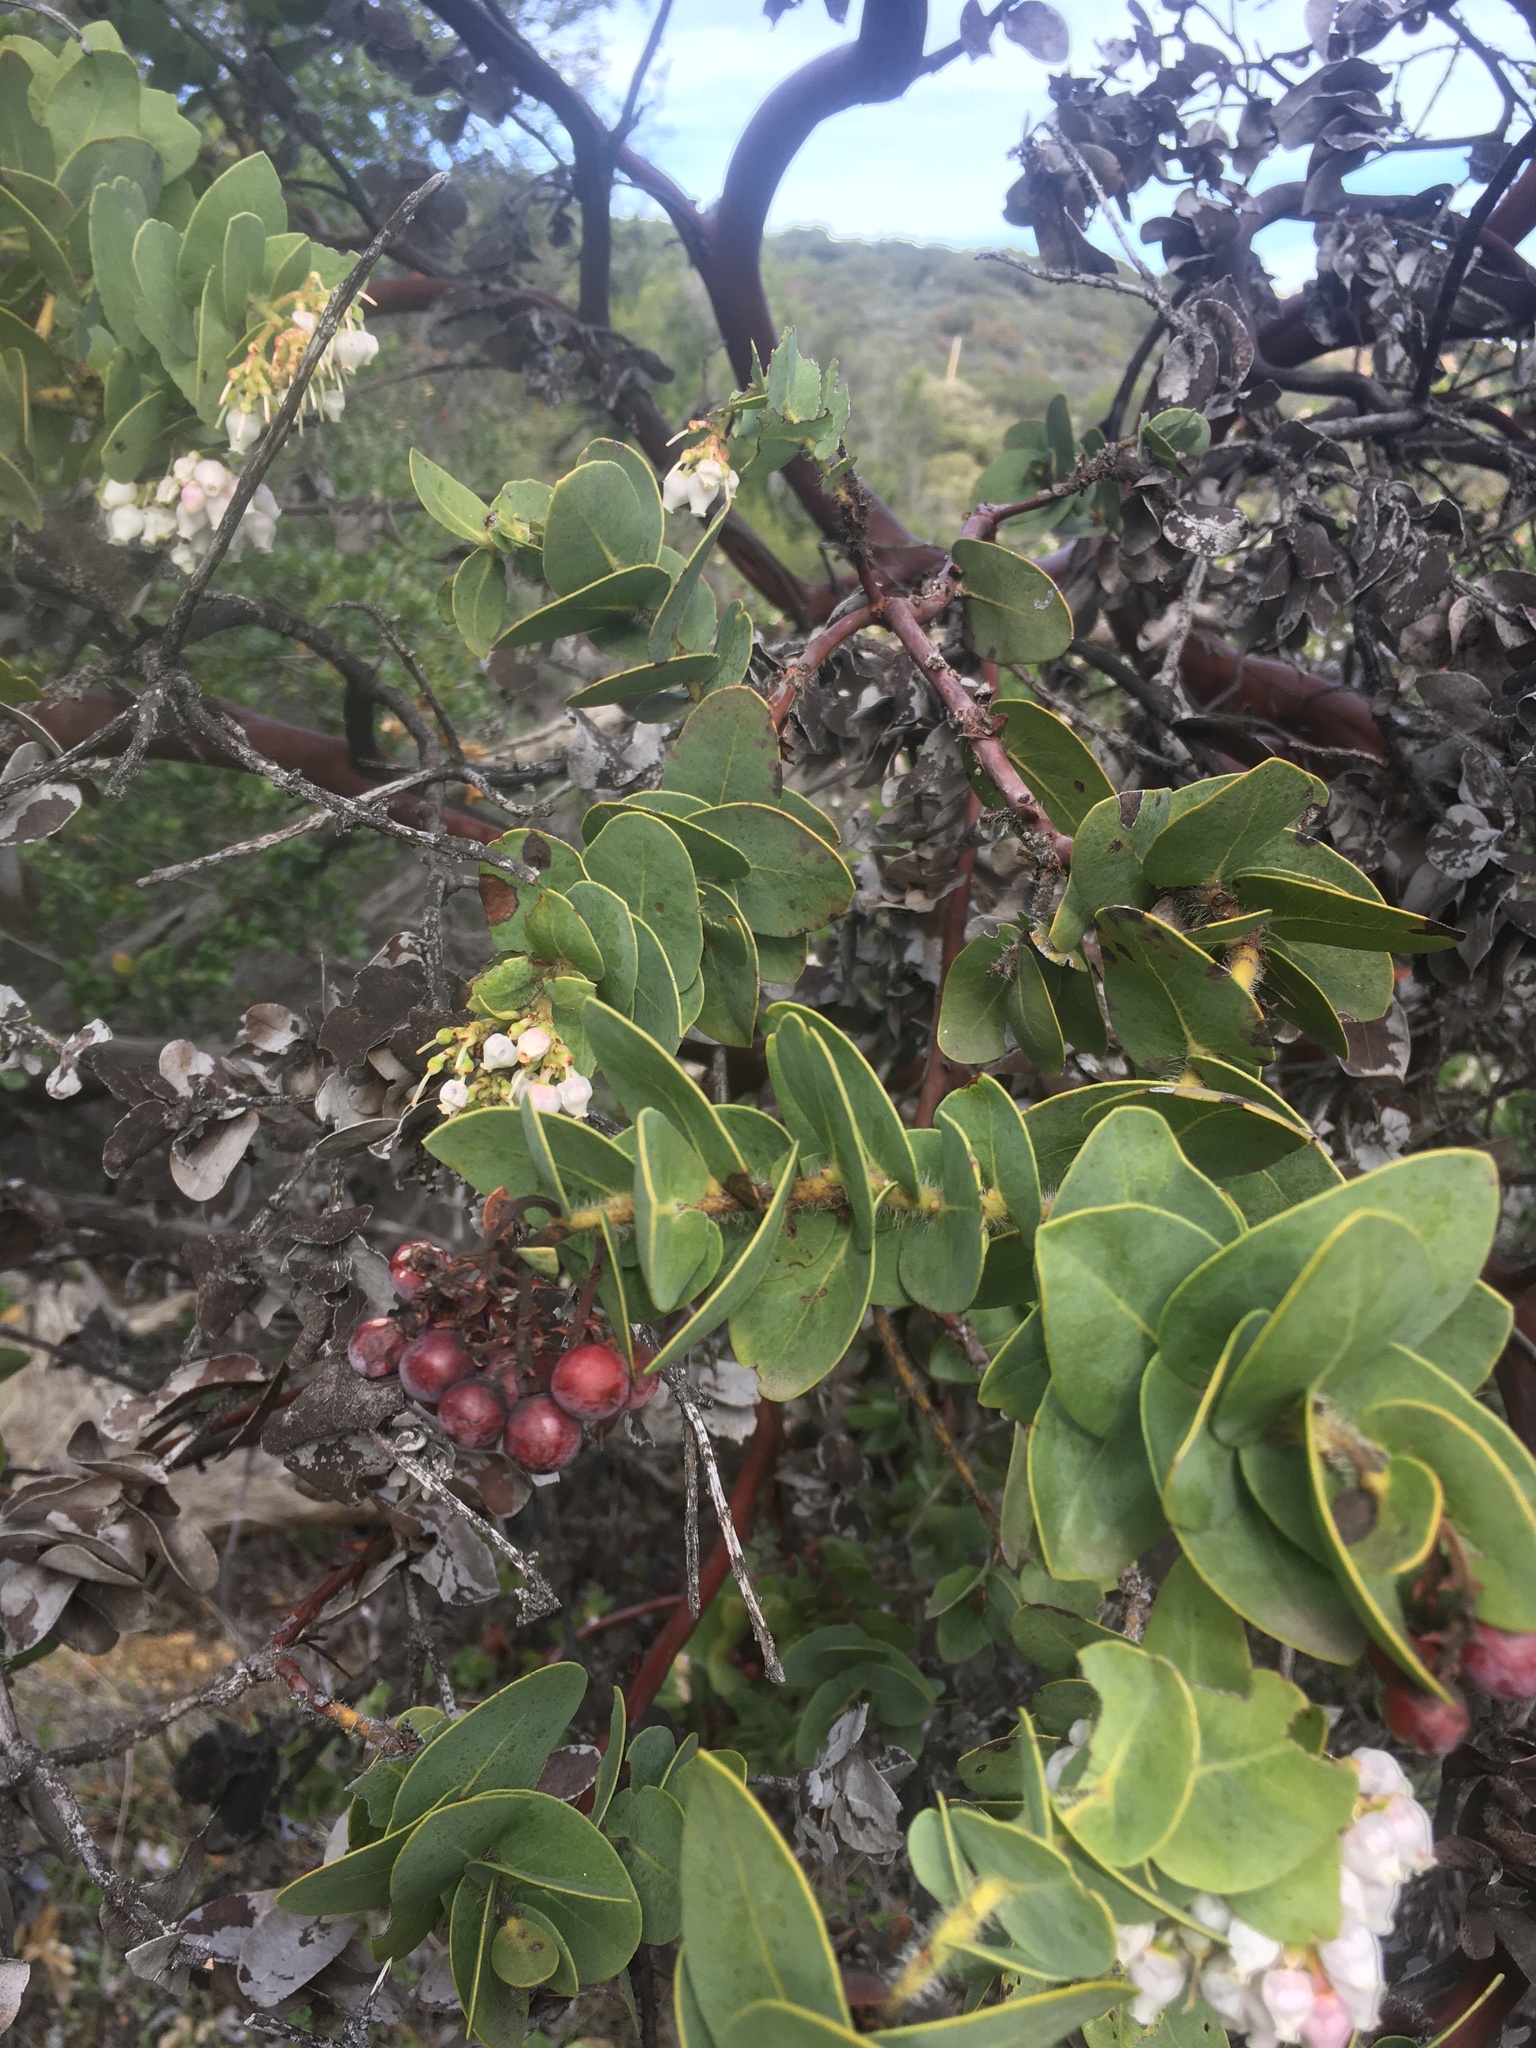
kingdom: Plantae
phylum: Tracheophyta
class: Magnoliopsida
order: Ericales
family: Ericaceae
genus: Arctostaphylos
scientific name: Arctostaphylos refugioensis
